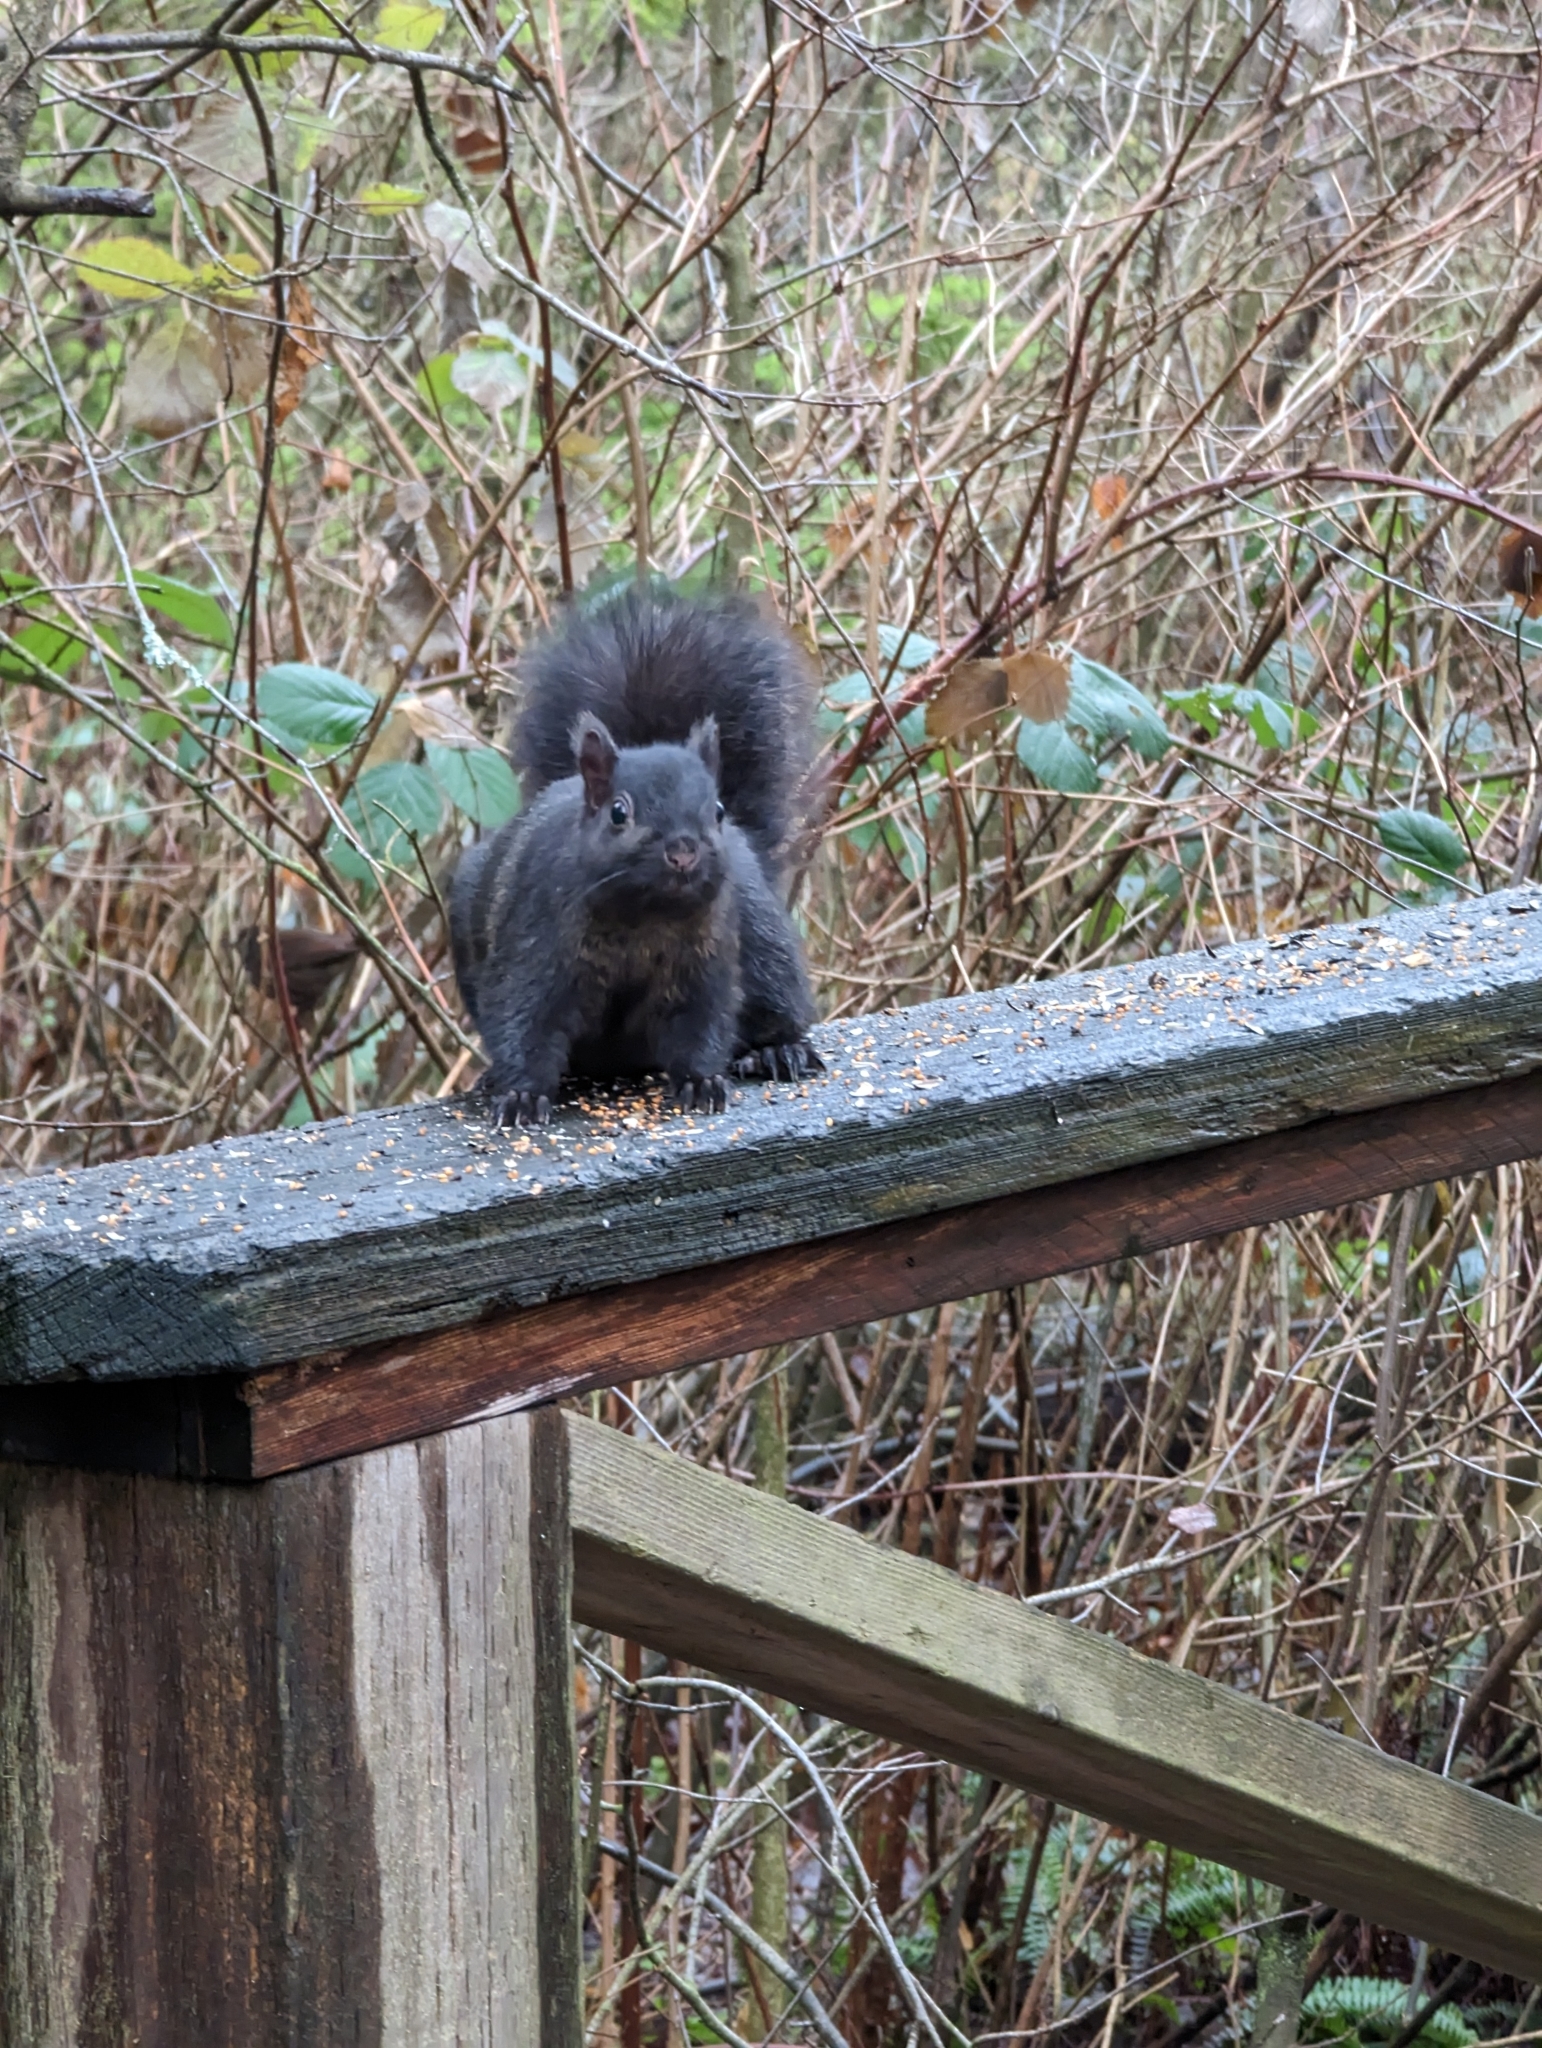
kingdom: Animalia
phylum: Chordata
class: Mammalia
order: Rodentia
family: Sciuridae
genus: Sciurus
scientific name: Sciurus carolinensis
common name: Eastern gray squirrel
